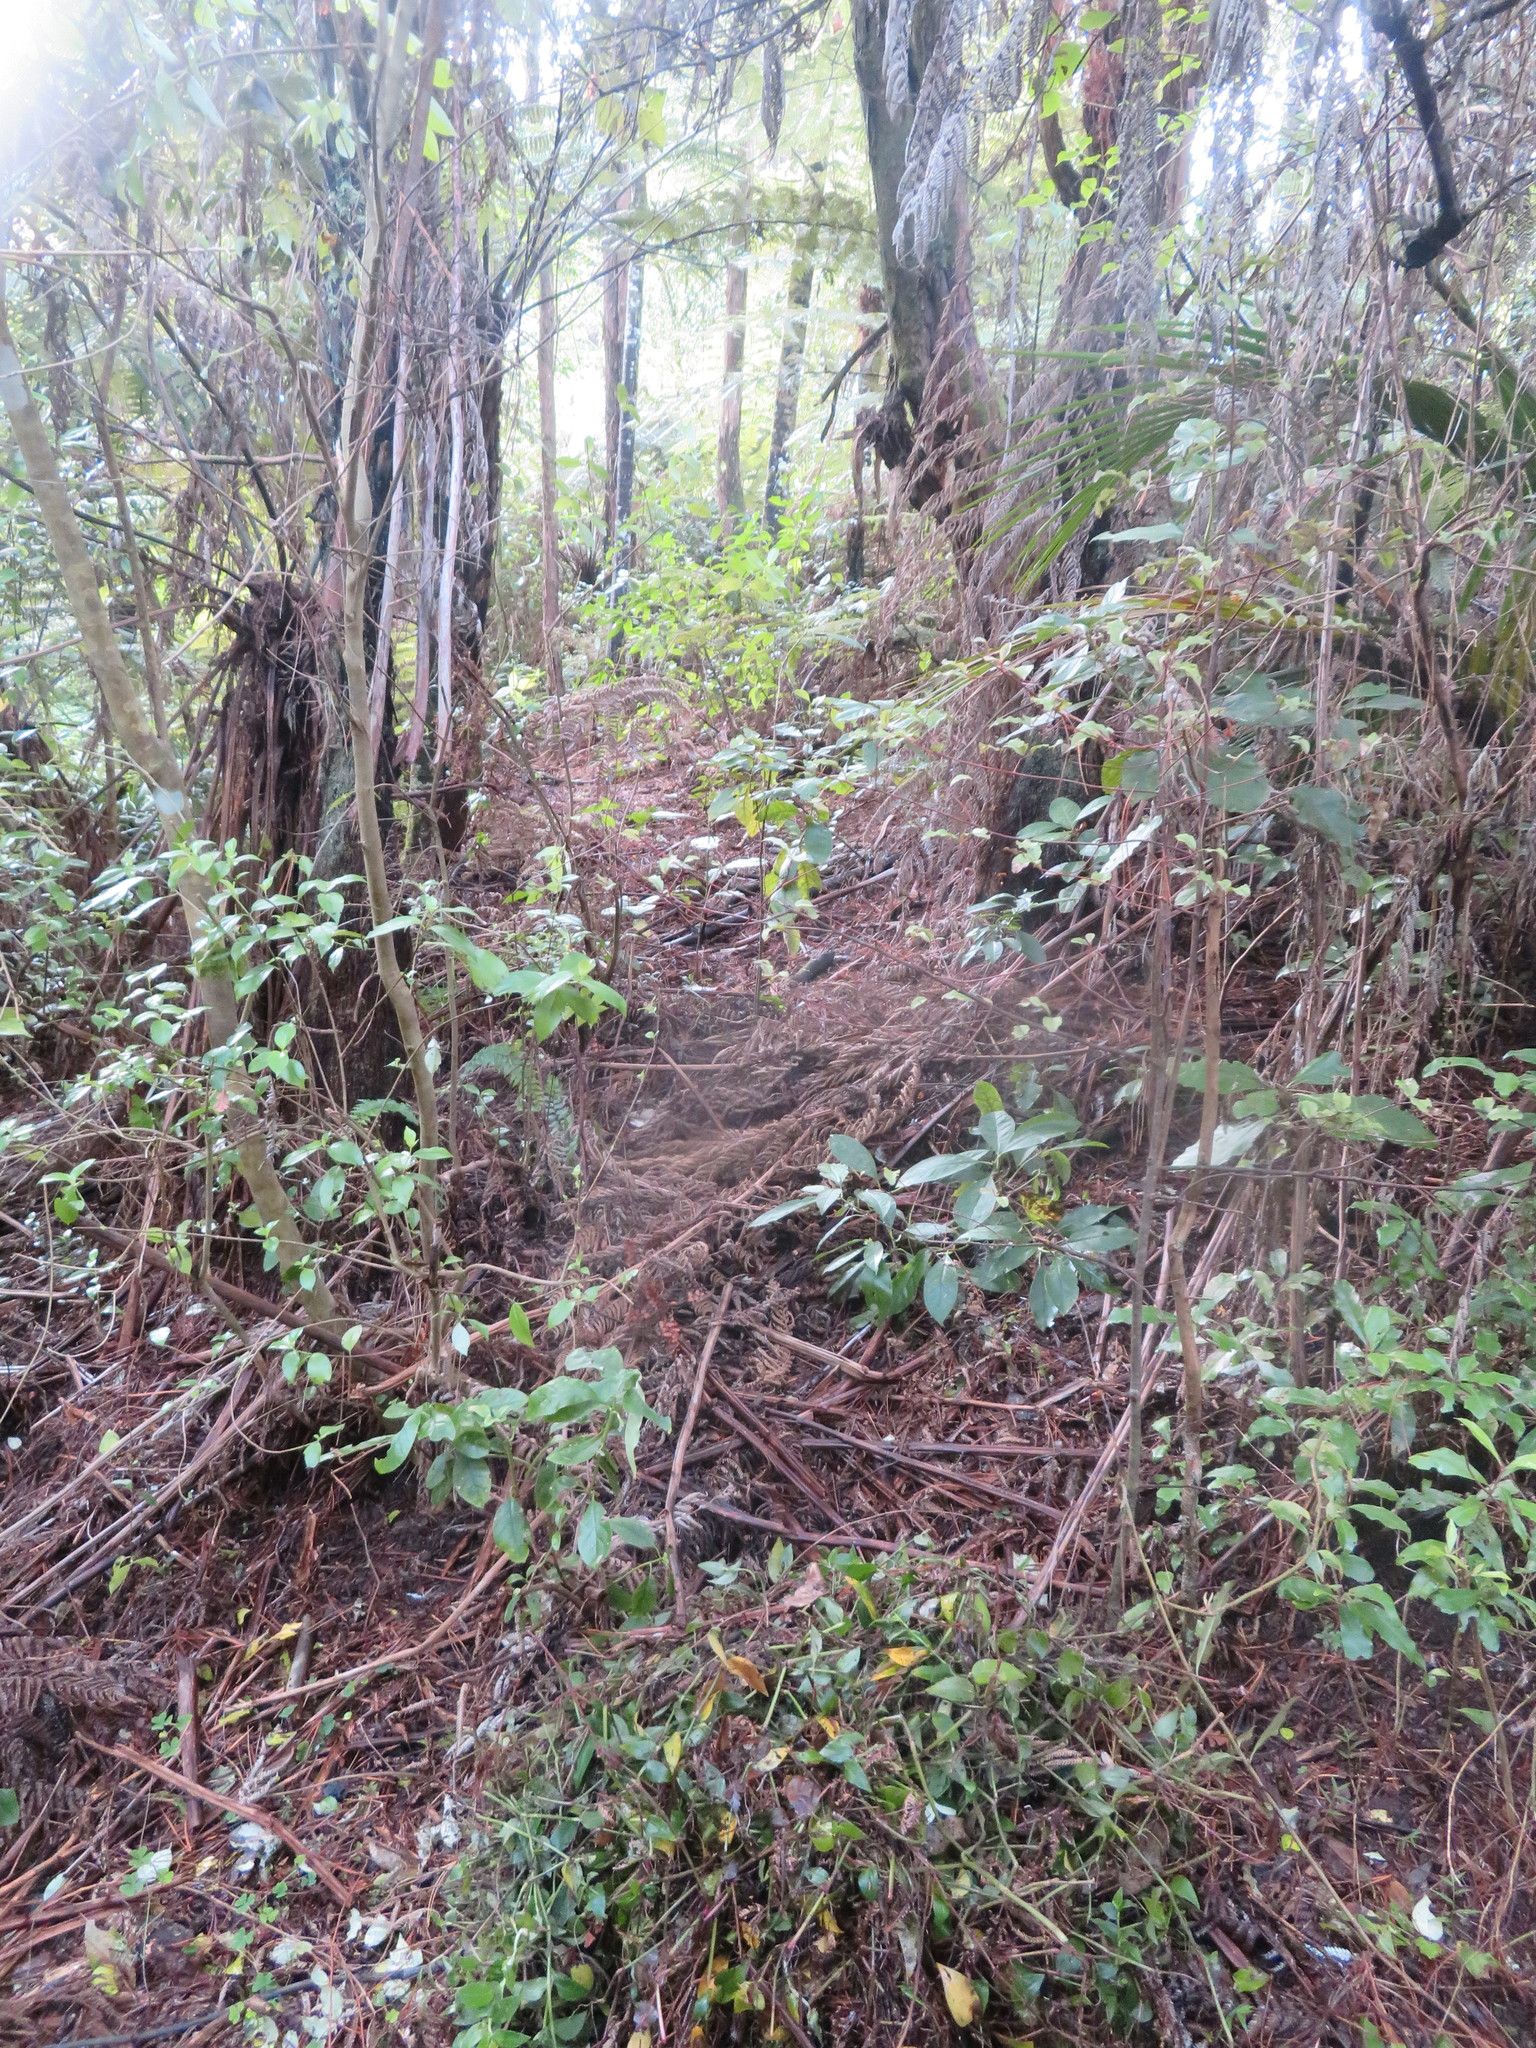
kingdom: Plantae
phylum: Tracheophyta
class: Liliopsida
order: Commelinales
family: Commelinaceae
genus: Tradescantia
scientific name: Tradescantia fluminensis
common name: Wandering-jew
